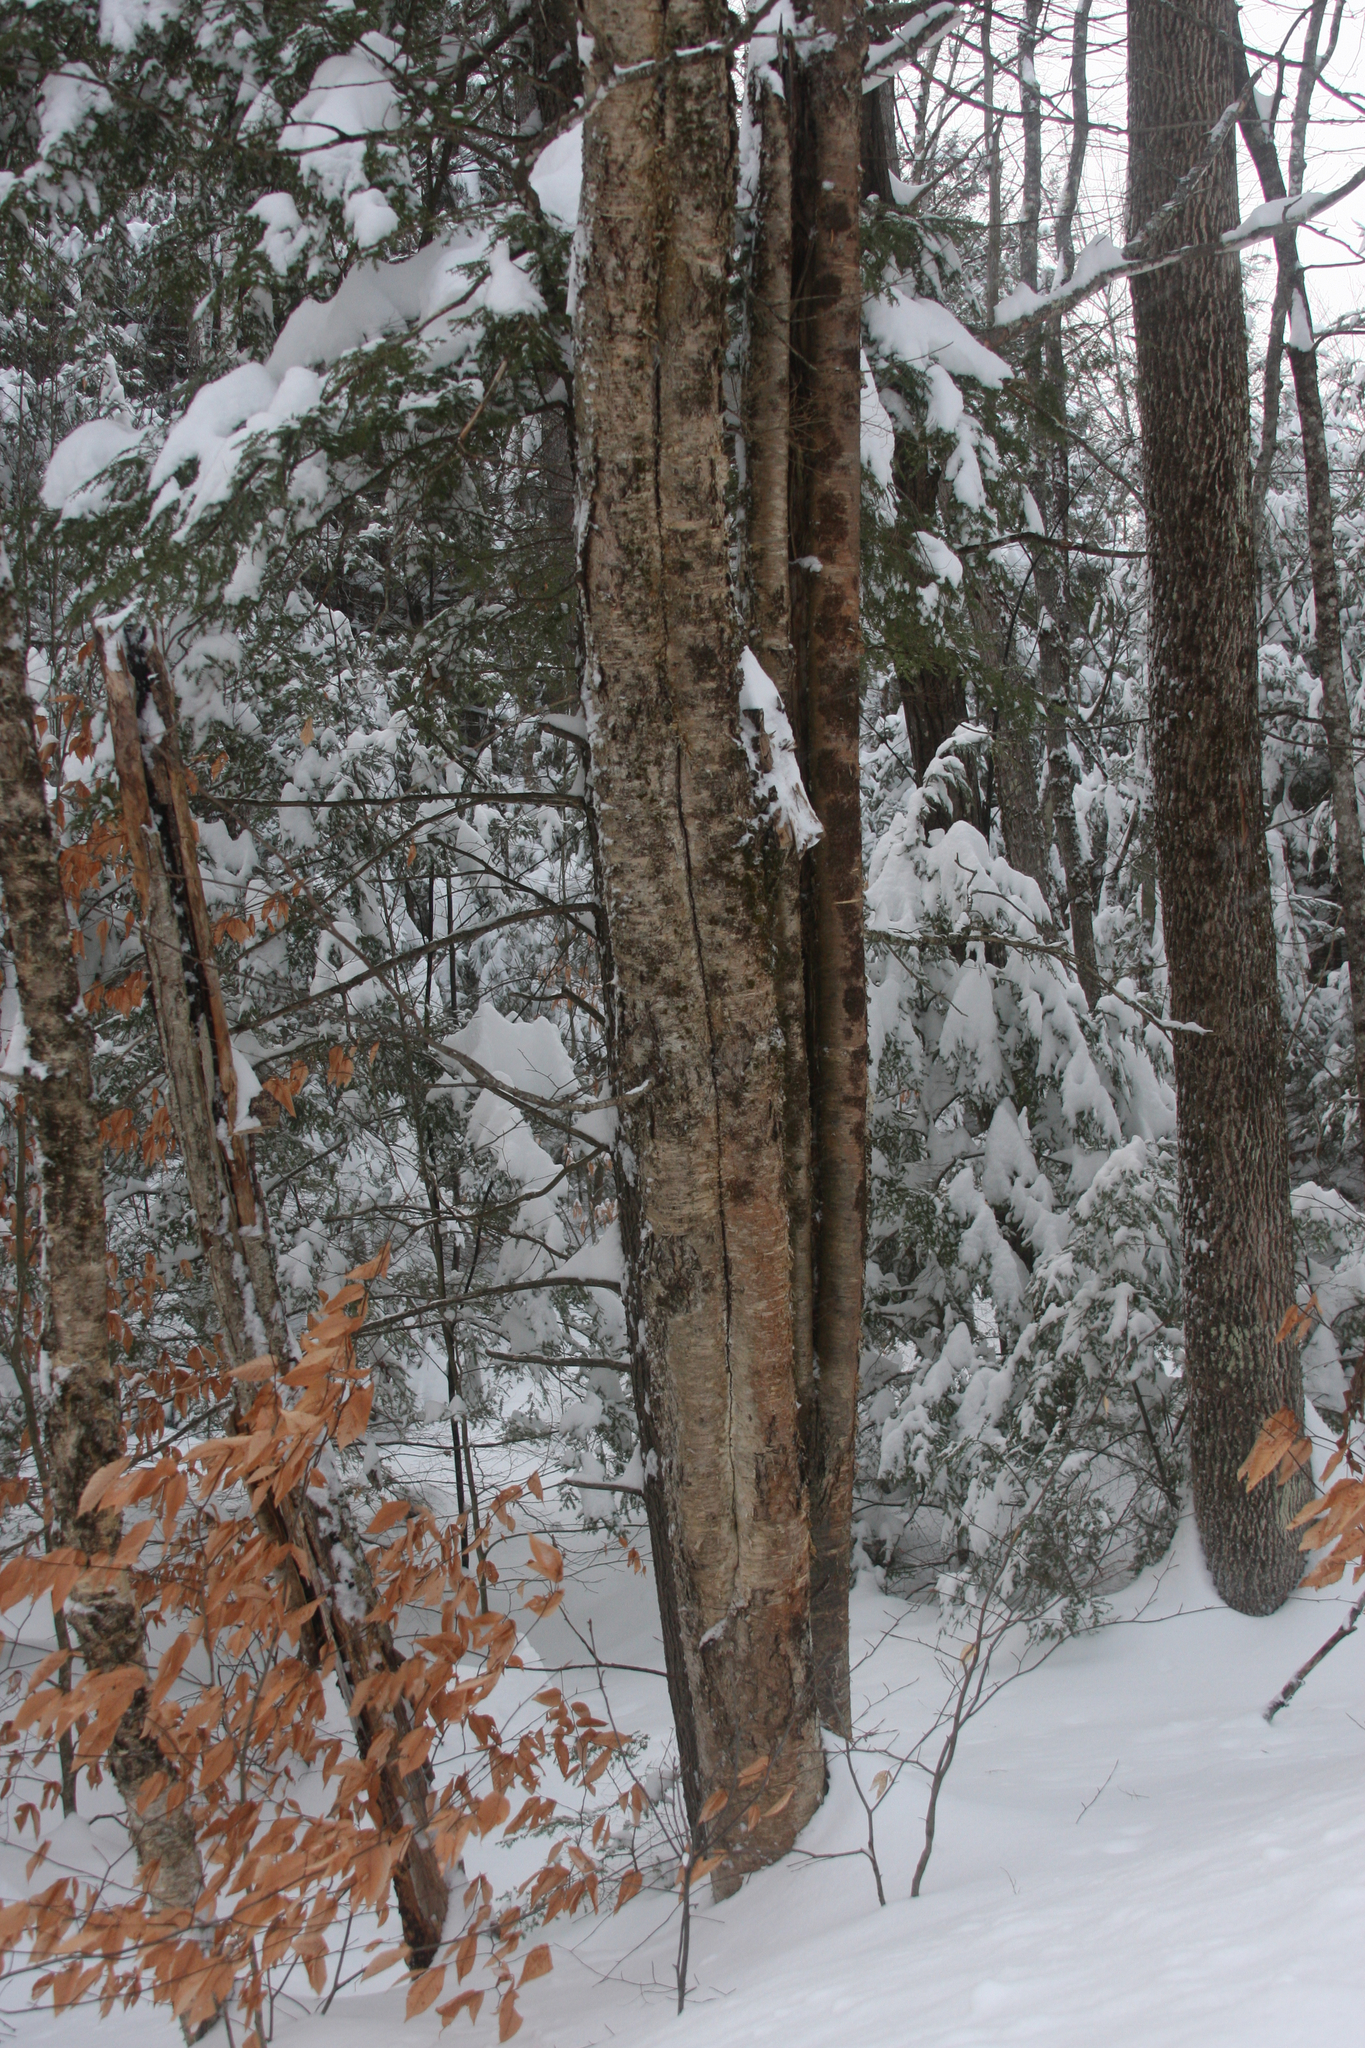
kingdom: Plantae
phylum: Tracheophyta
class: Magnoliopsida
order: Fagales
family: Betulaceae
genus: Betula
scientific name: Betula alleghaniensis
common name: Yellow birch
